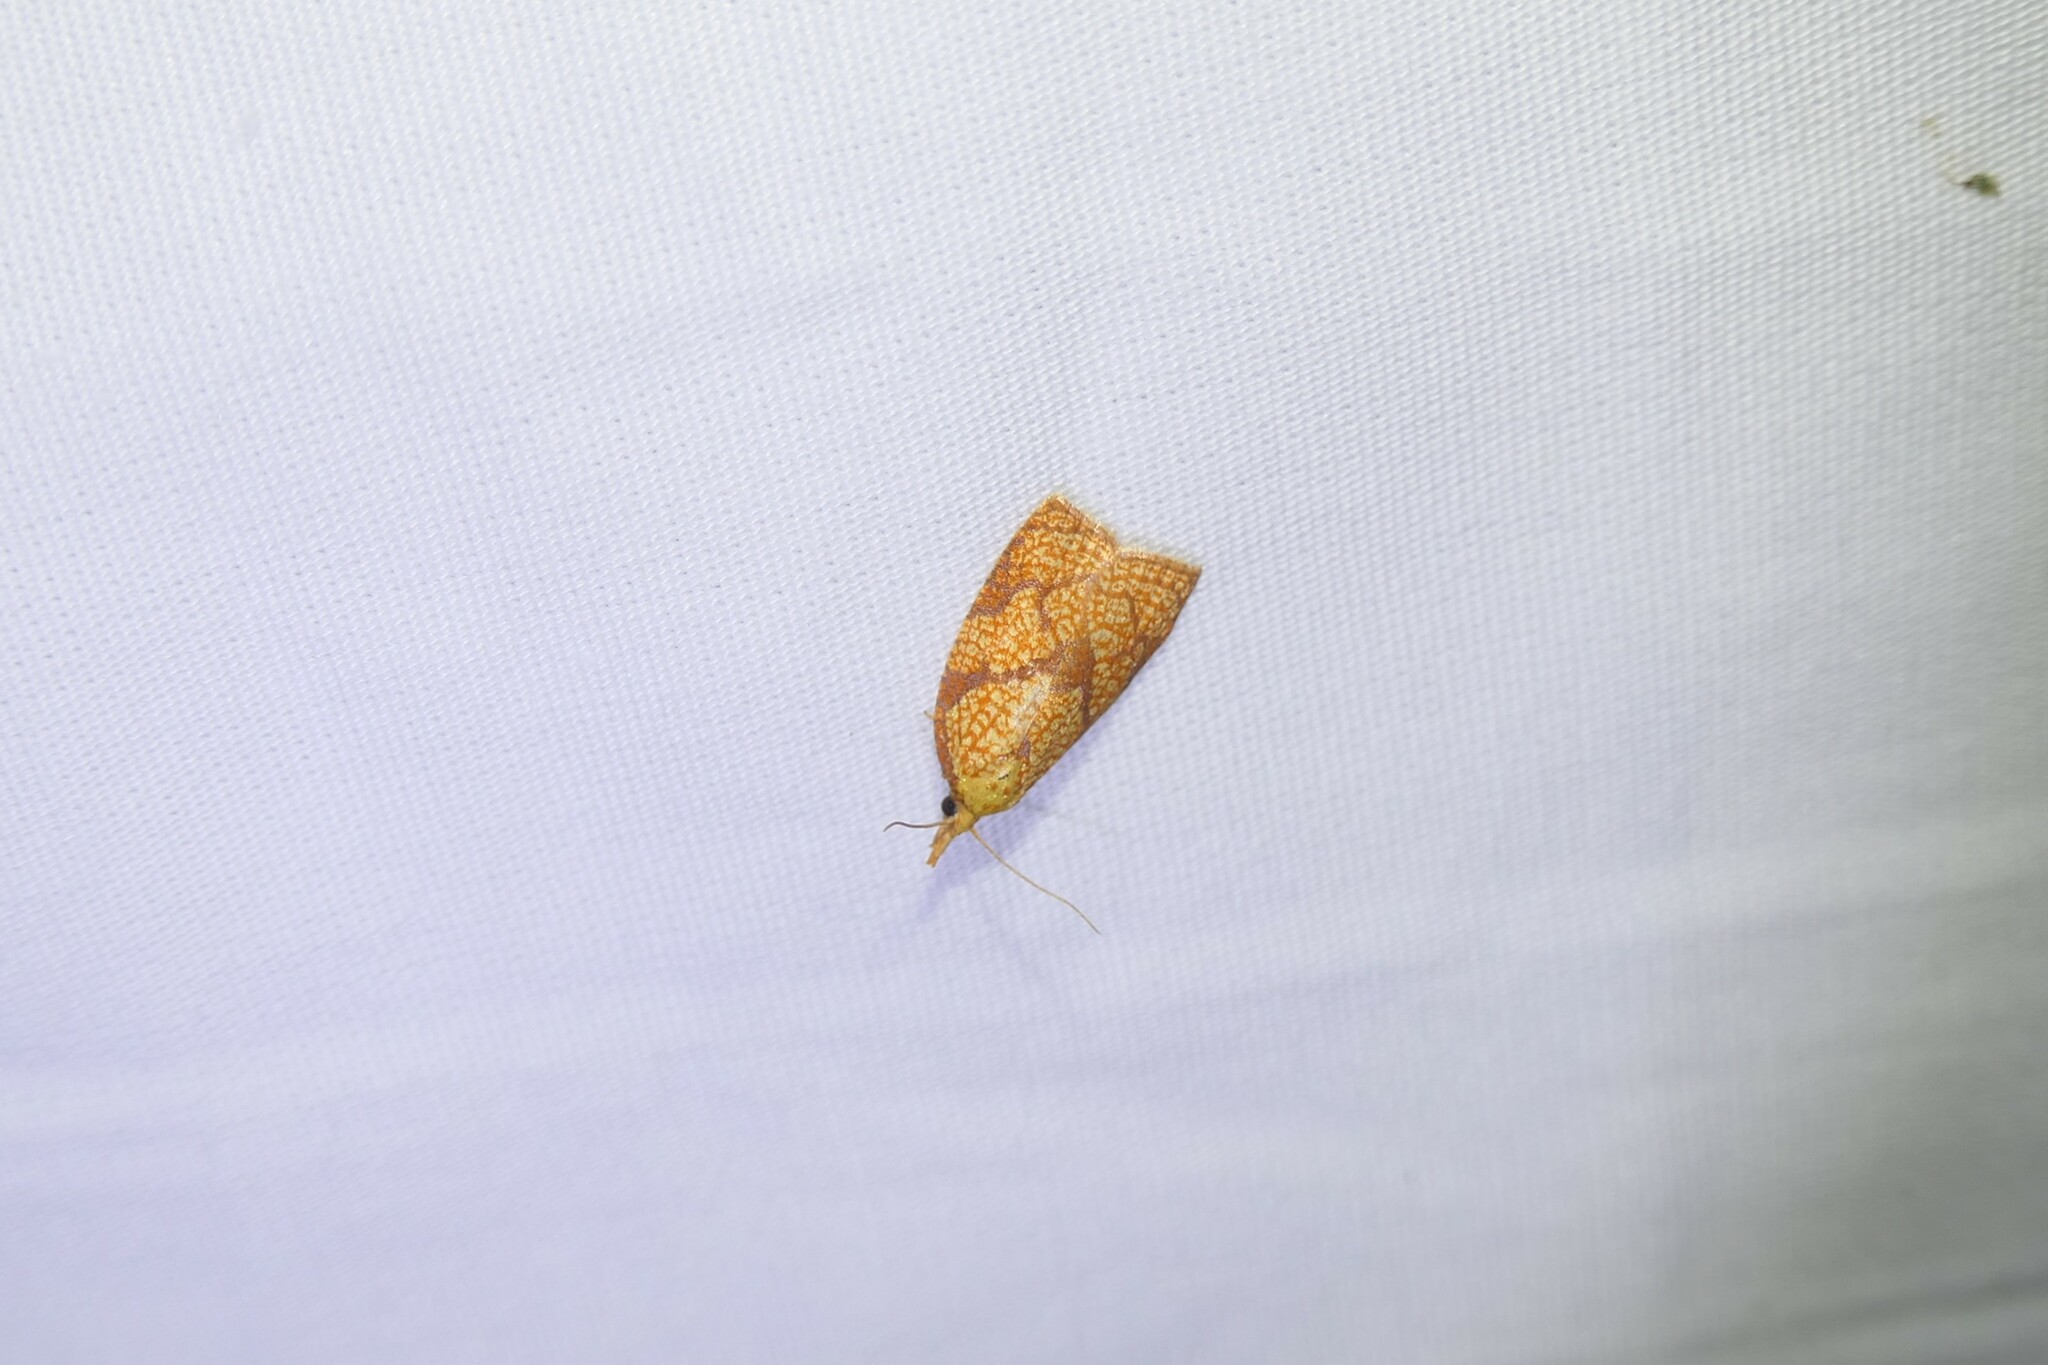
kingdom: Animalia
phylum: Arthropoda
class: Insecta
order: Lepidoptera
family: Tortricidae
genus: Cenopis
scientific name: Cenopis reticulatana
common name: Reticulated fruitworm moth
